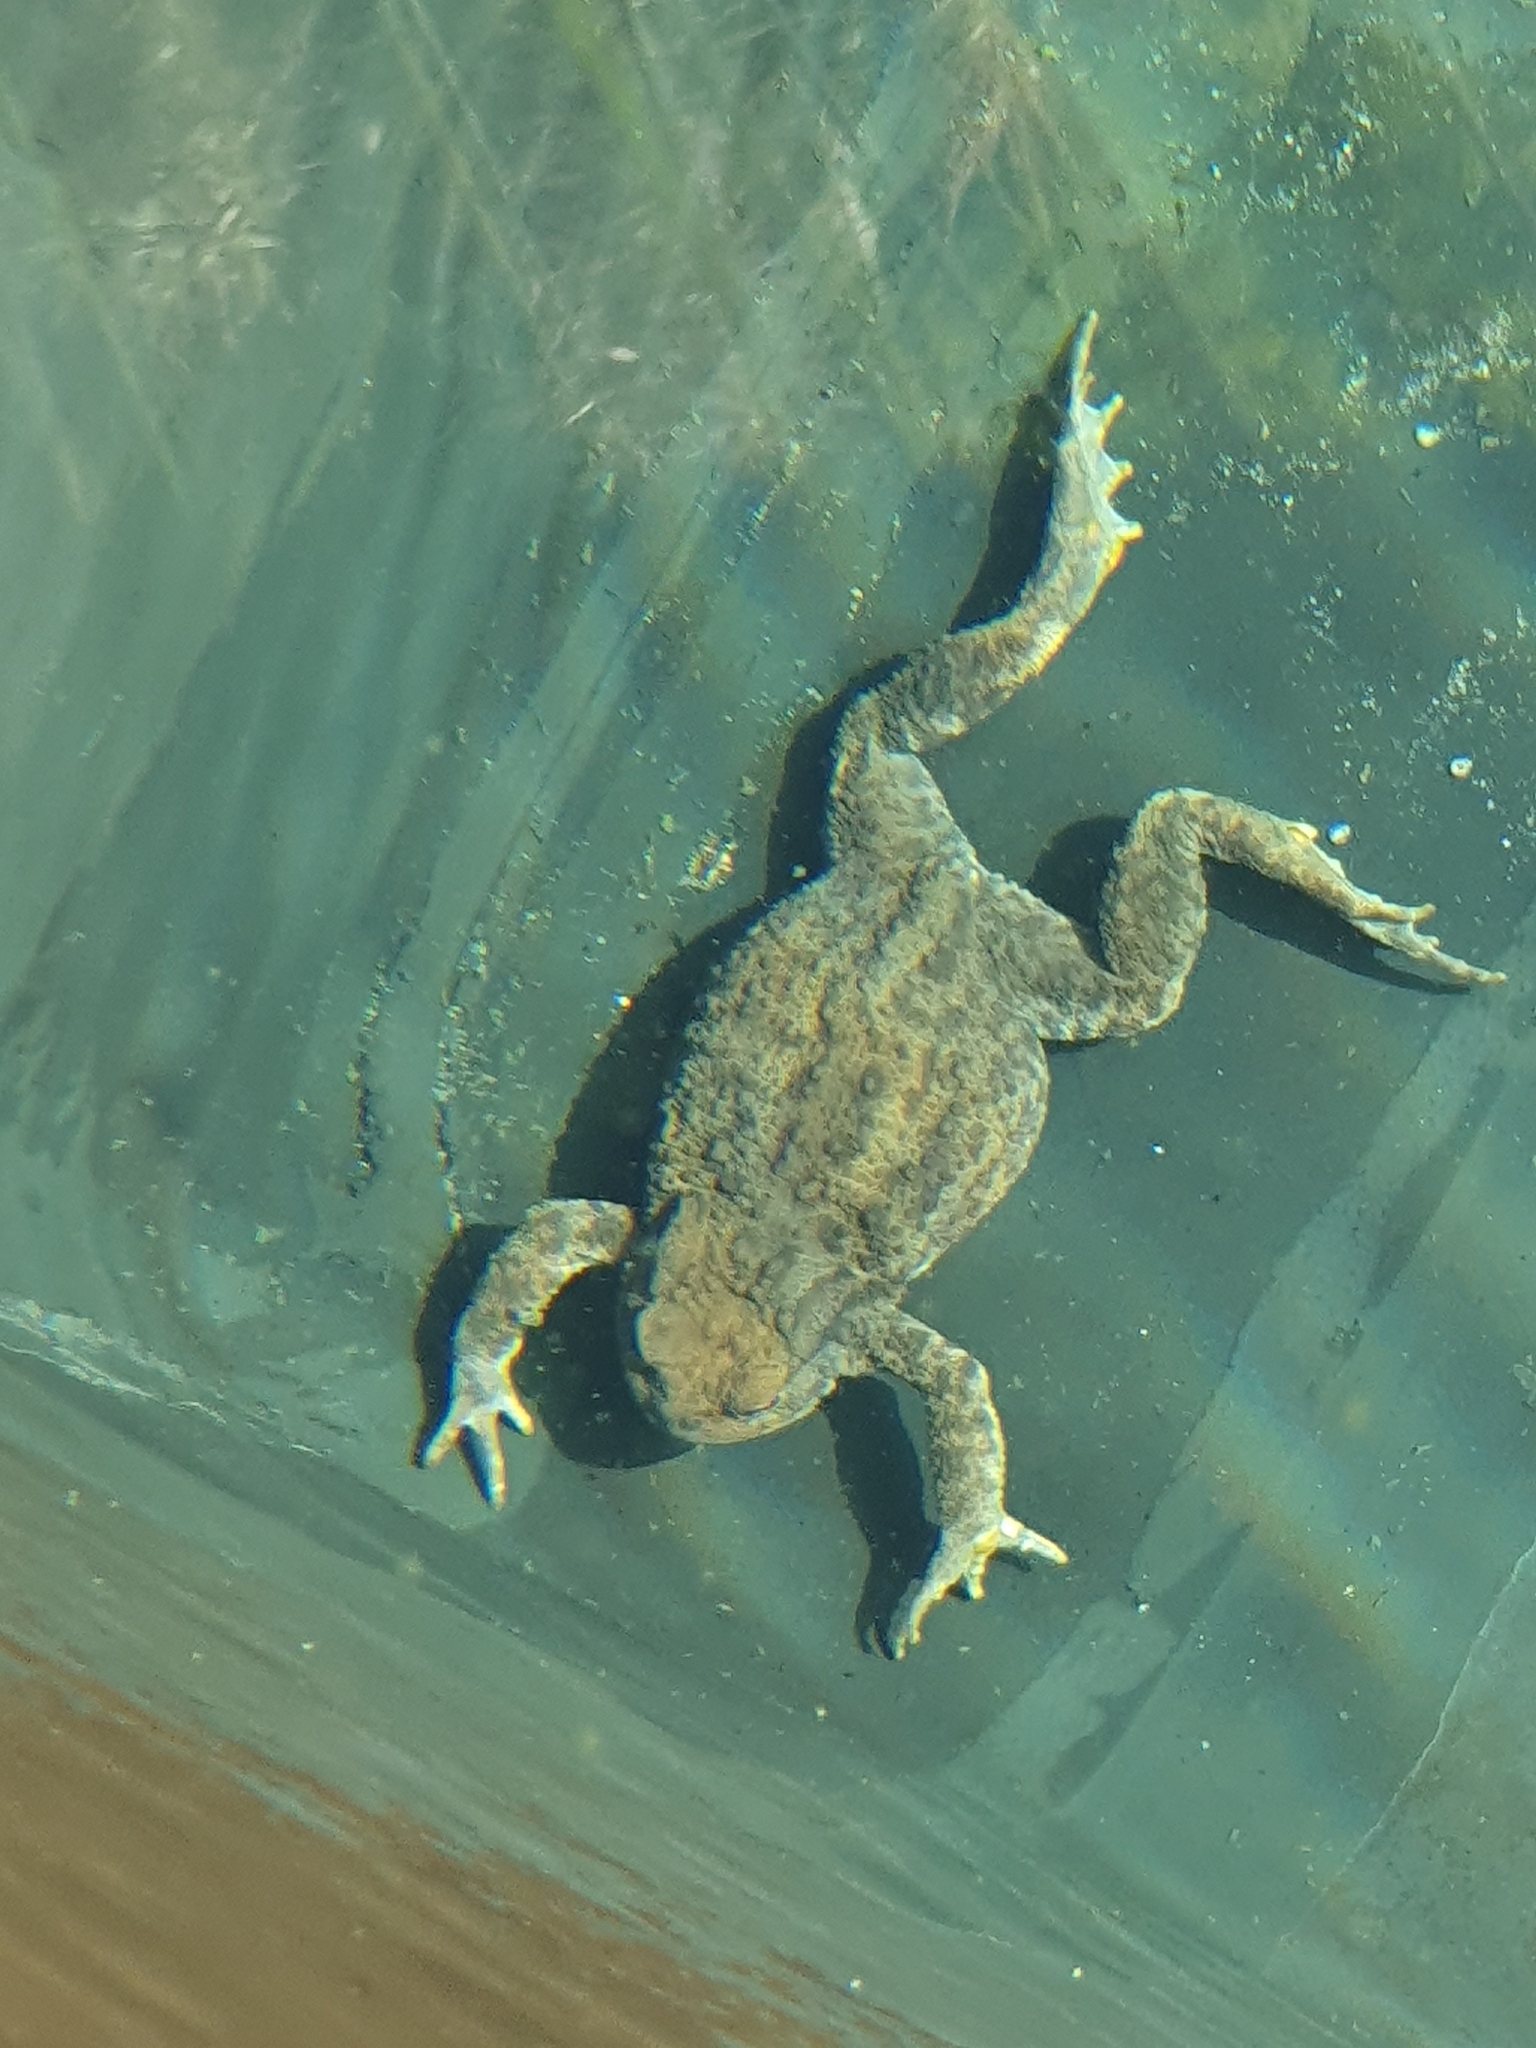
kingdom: Animalia
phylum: Chordata
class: Amphibia
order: Anura
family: Bufonidae
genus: Bufo
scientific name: Bufo bufo
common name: Common toad
